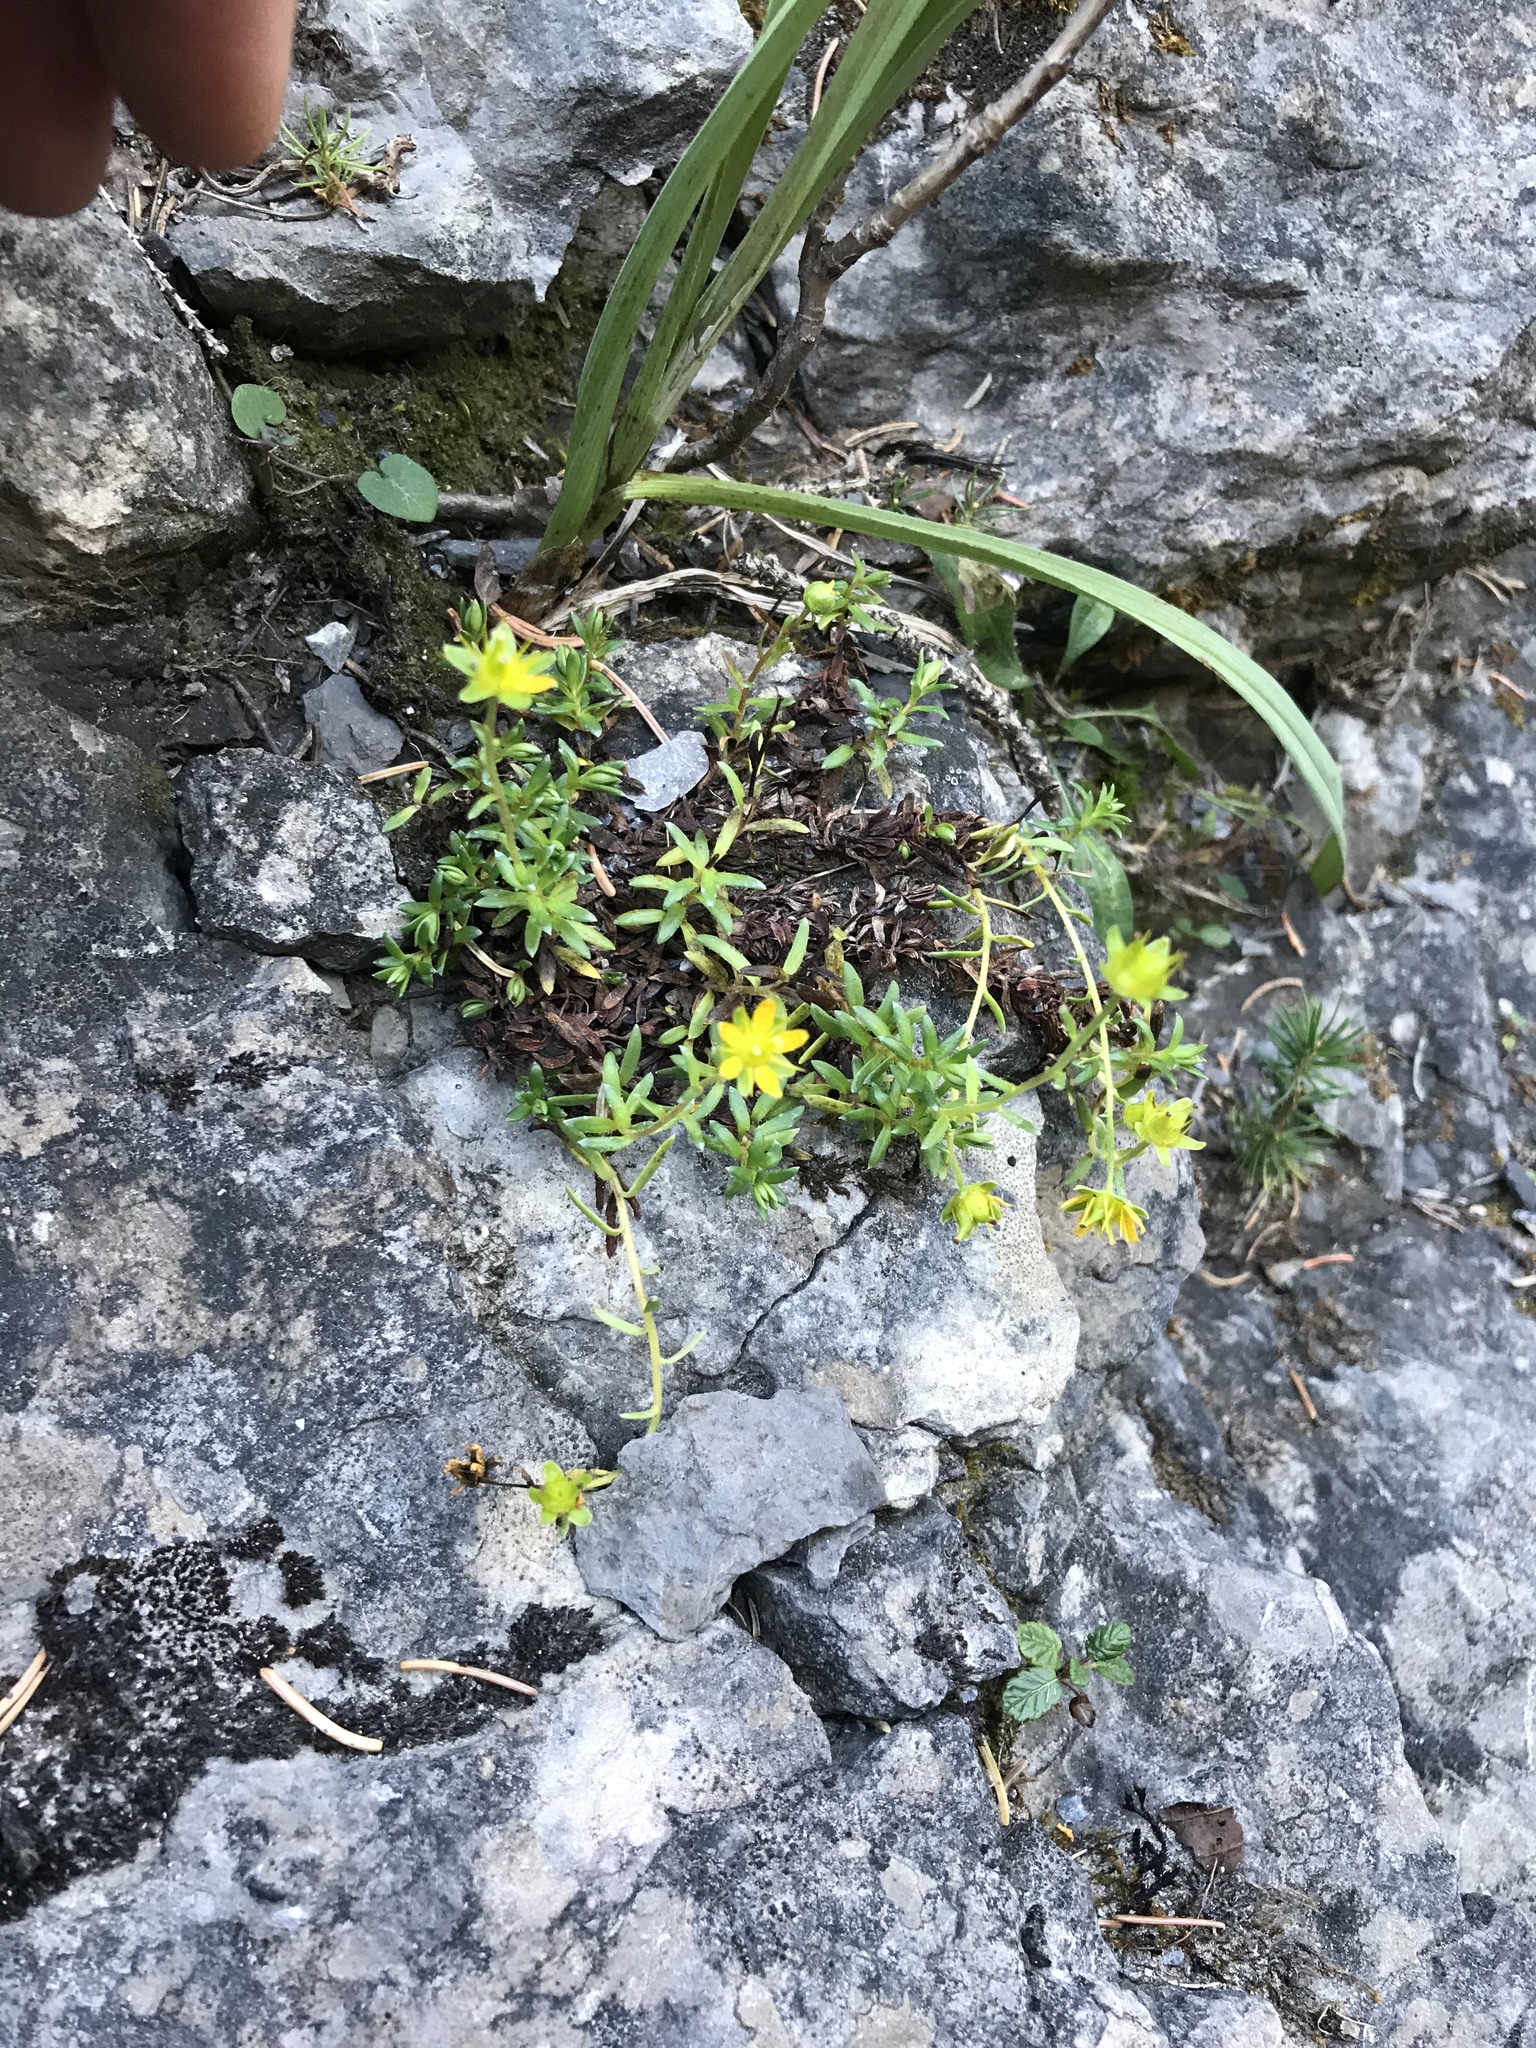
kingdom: Plantae
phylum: Tracheophyta
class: Magnoliopsida
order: Saxifragales
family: Saxifragaceae
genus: Saxifraga
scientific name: Saxifraga aizoides
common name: Yellow mountain saxifrage
